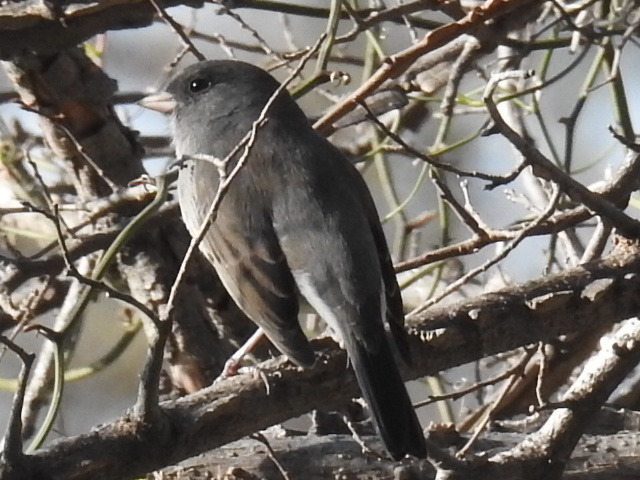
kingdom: Animalia
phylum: Chordata
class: Aves
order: Passeriformes
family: Passerellidae
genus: Junco
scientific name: Junco hyemalis
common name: Dark-eyed junco
